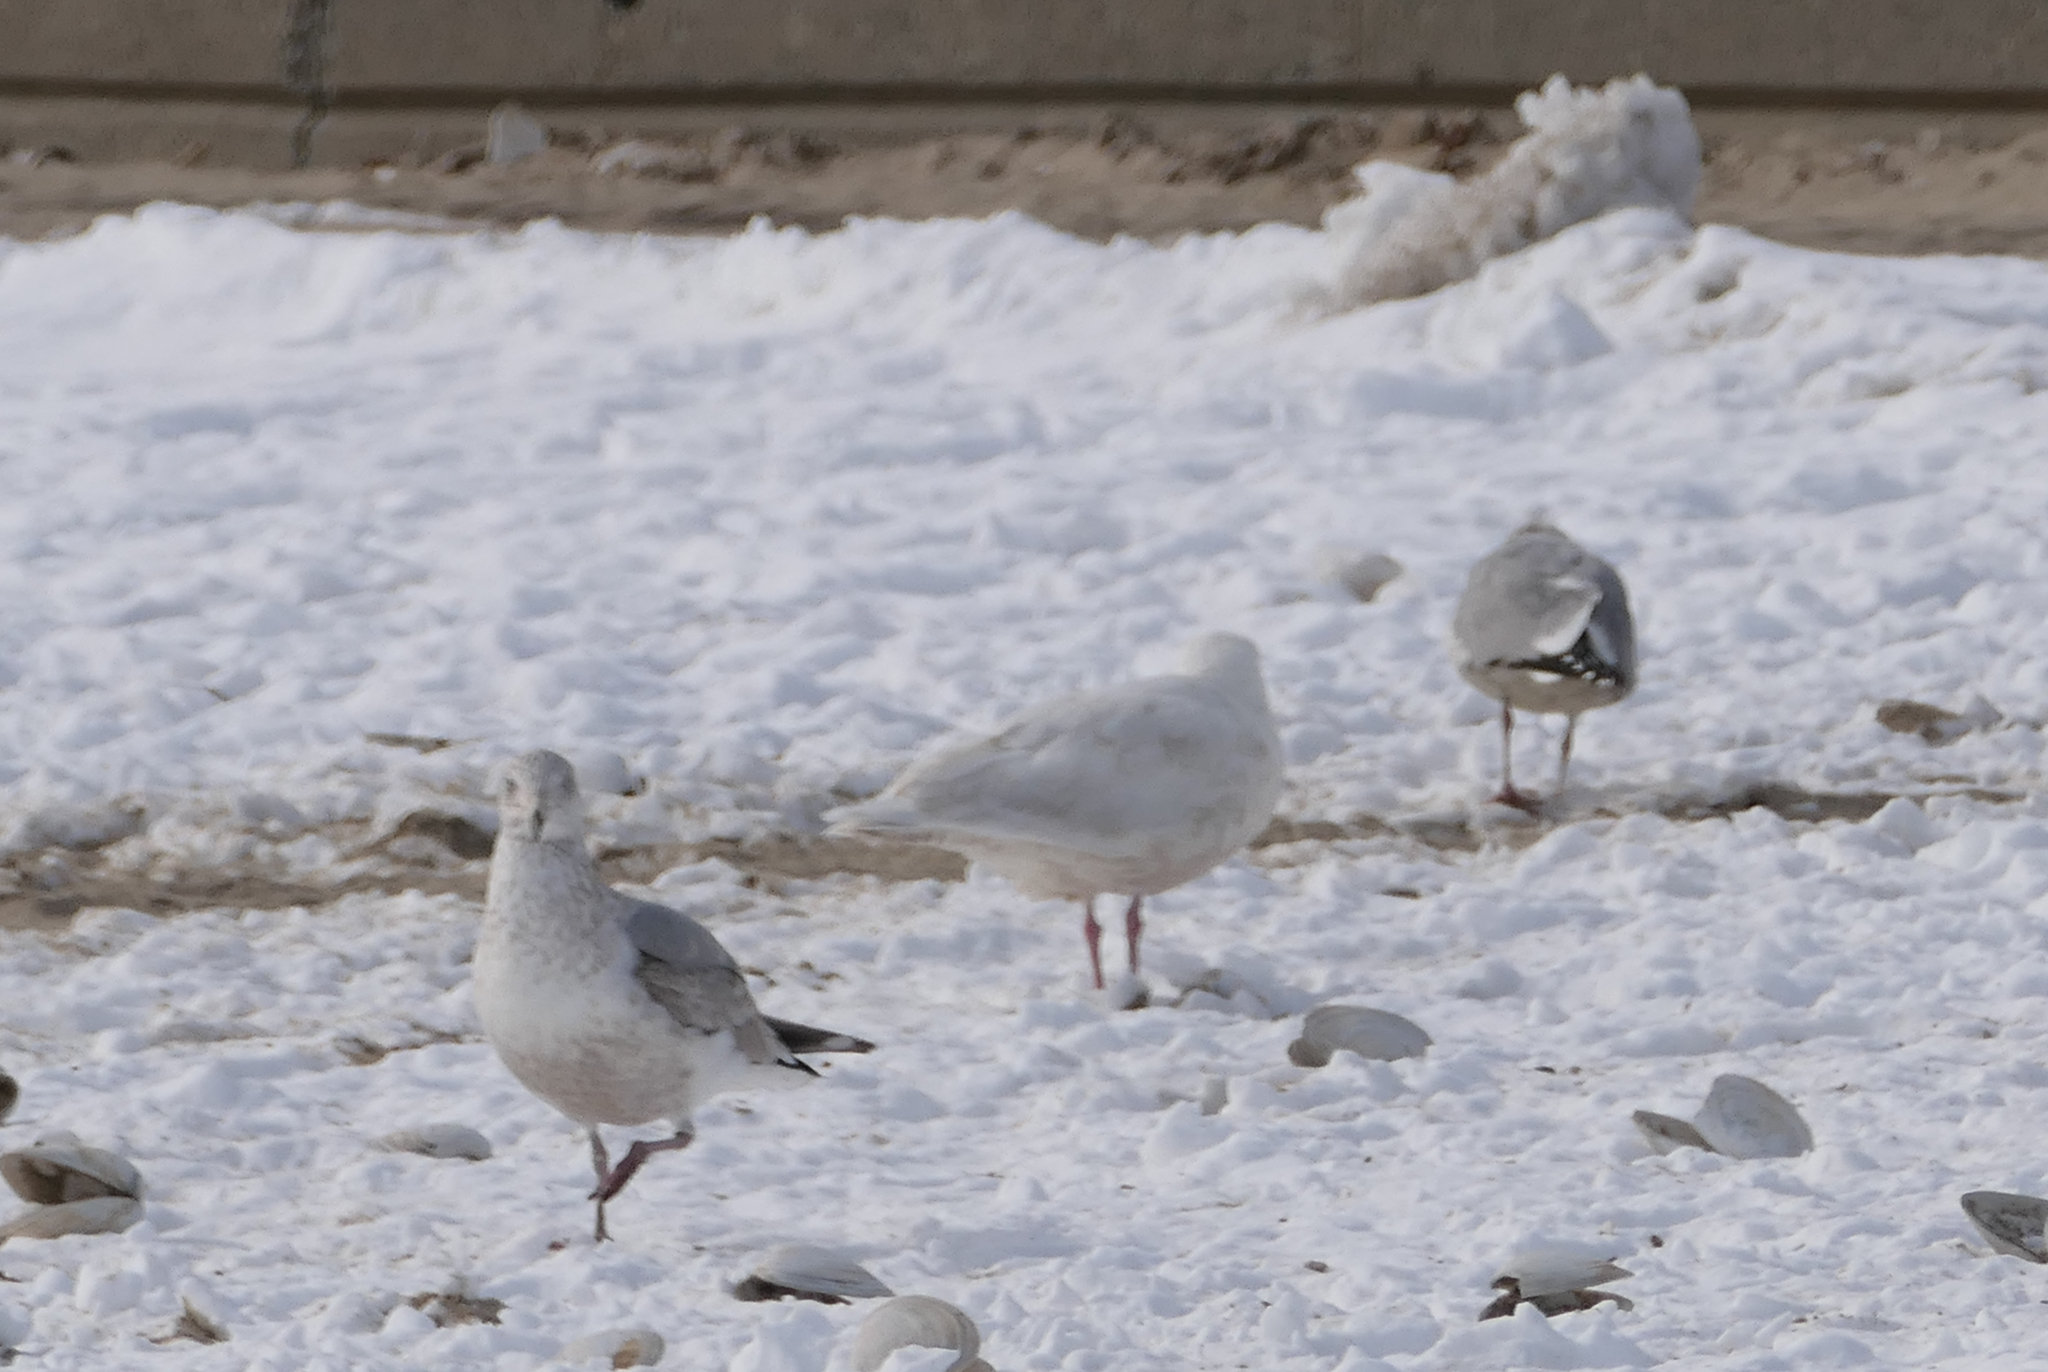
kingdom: Animalia
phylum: Chordata
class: Aves
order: Charadriiformes
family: Laridae
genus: Larus
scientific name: Larus argentatus
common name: Herring gull
